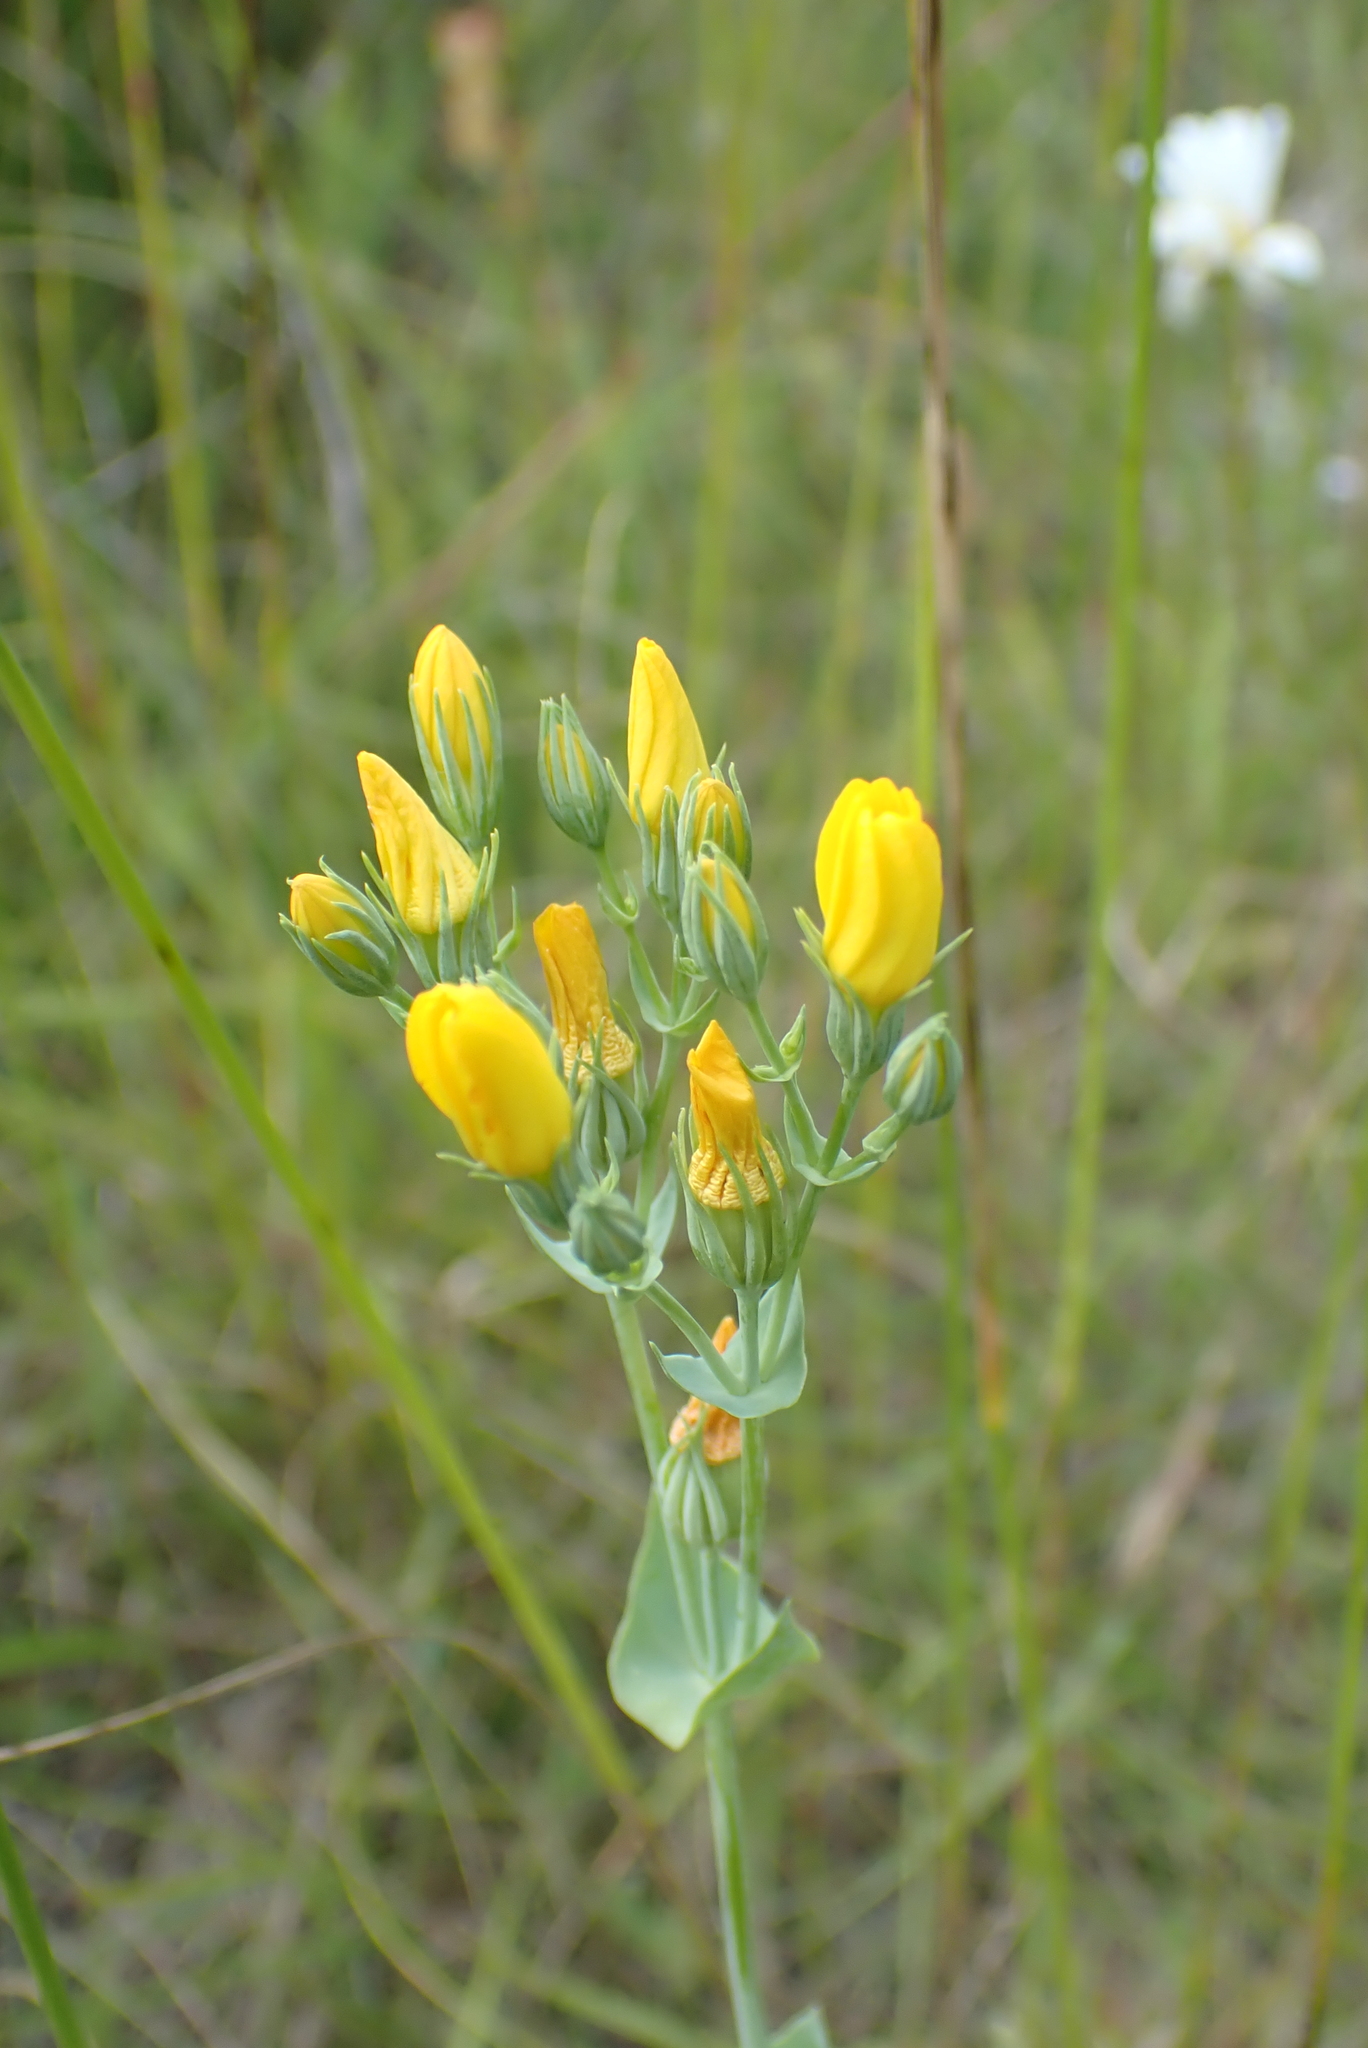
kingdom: Plantae
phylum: Tracheophyta
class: Magnoliopsida
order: Gentianales
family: Gentianaceae
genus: Blackstonia
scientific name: Blackstonia perfoliata
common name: Yellow-wort
